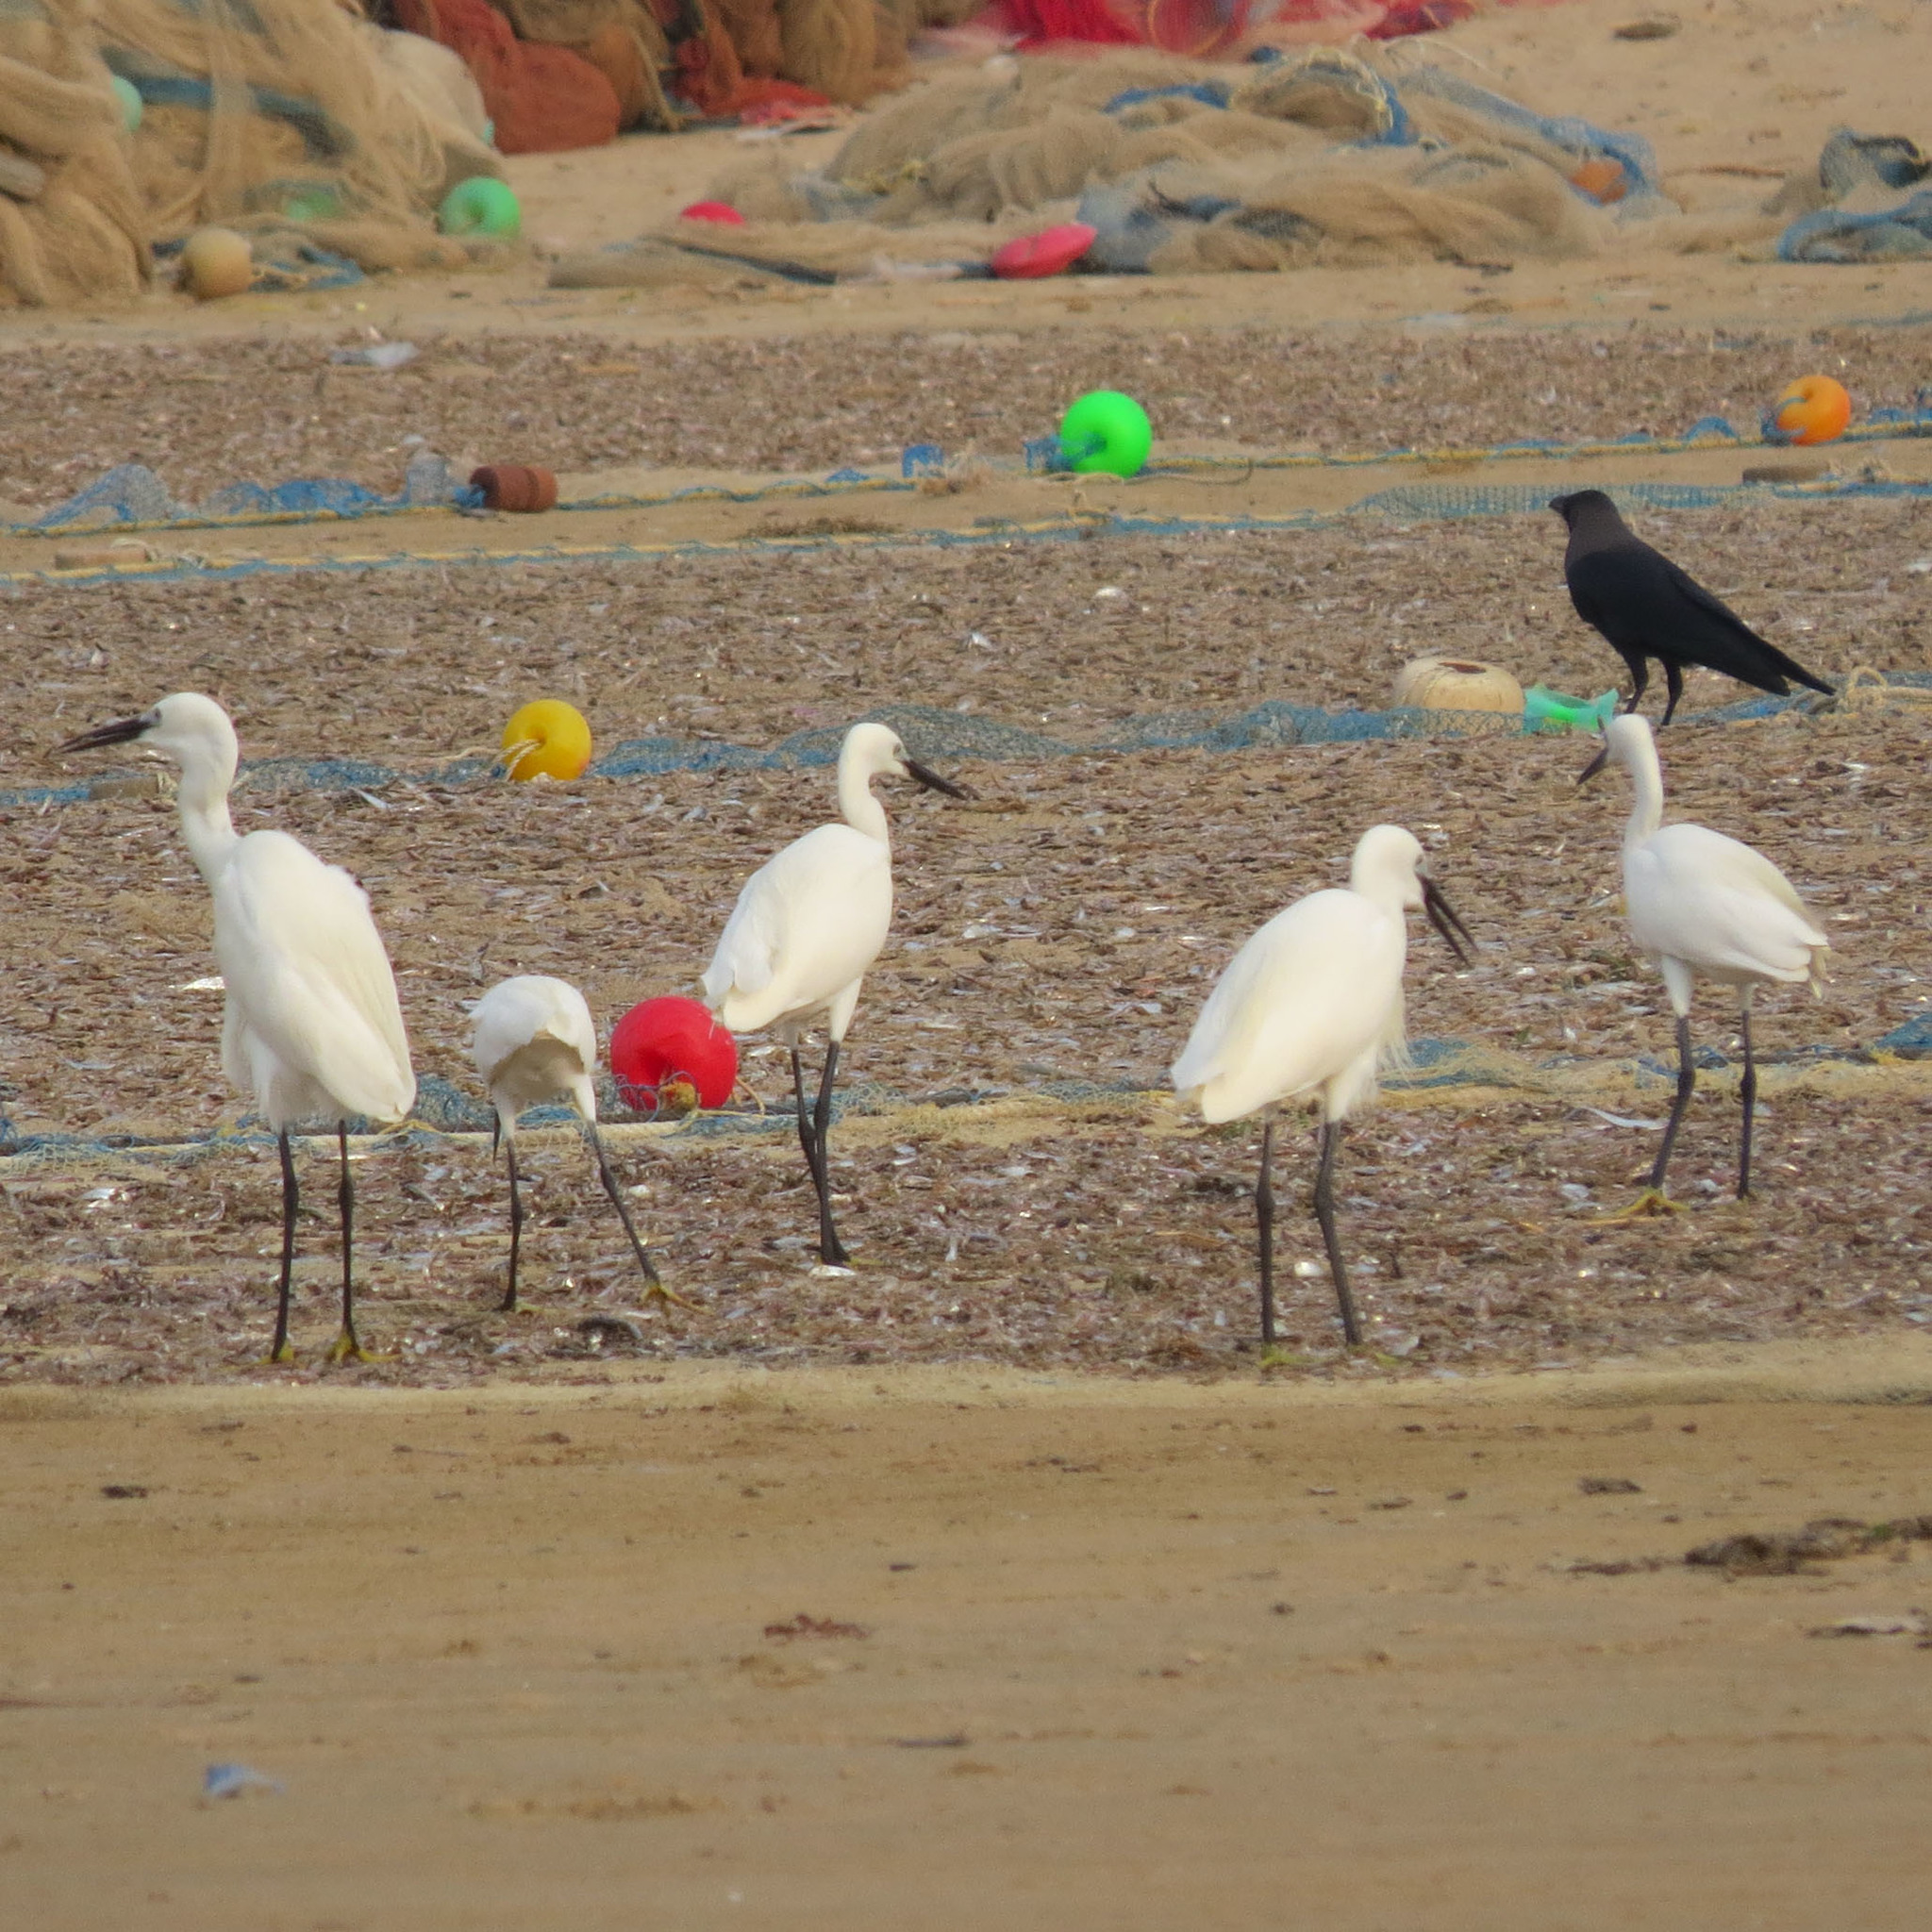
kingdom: Animalia
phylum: Chordata
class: Aves
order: Pelecaniformes
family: Ardeidae
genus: Egretta
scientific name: Egretta garzetta
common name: Little egret
